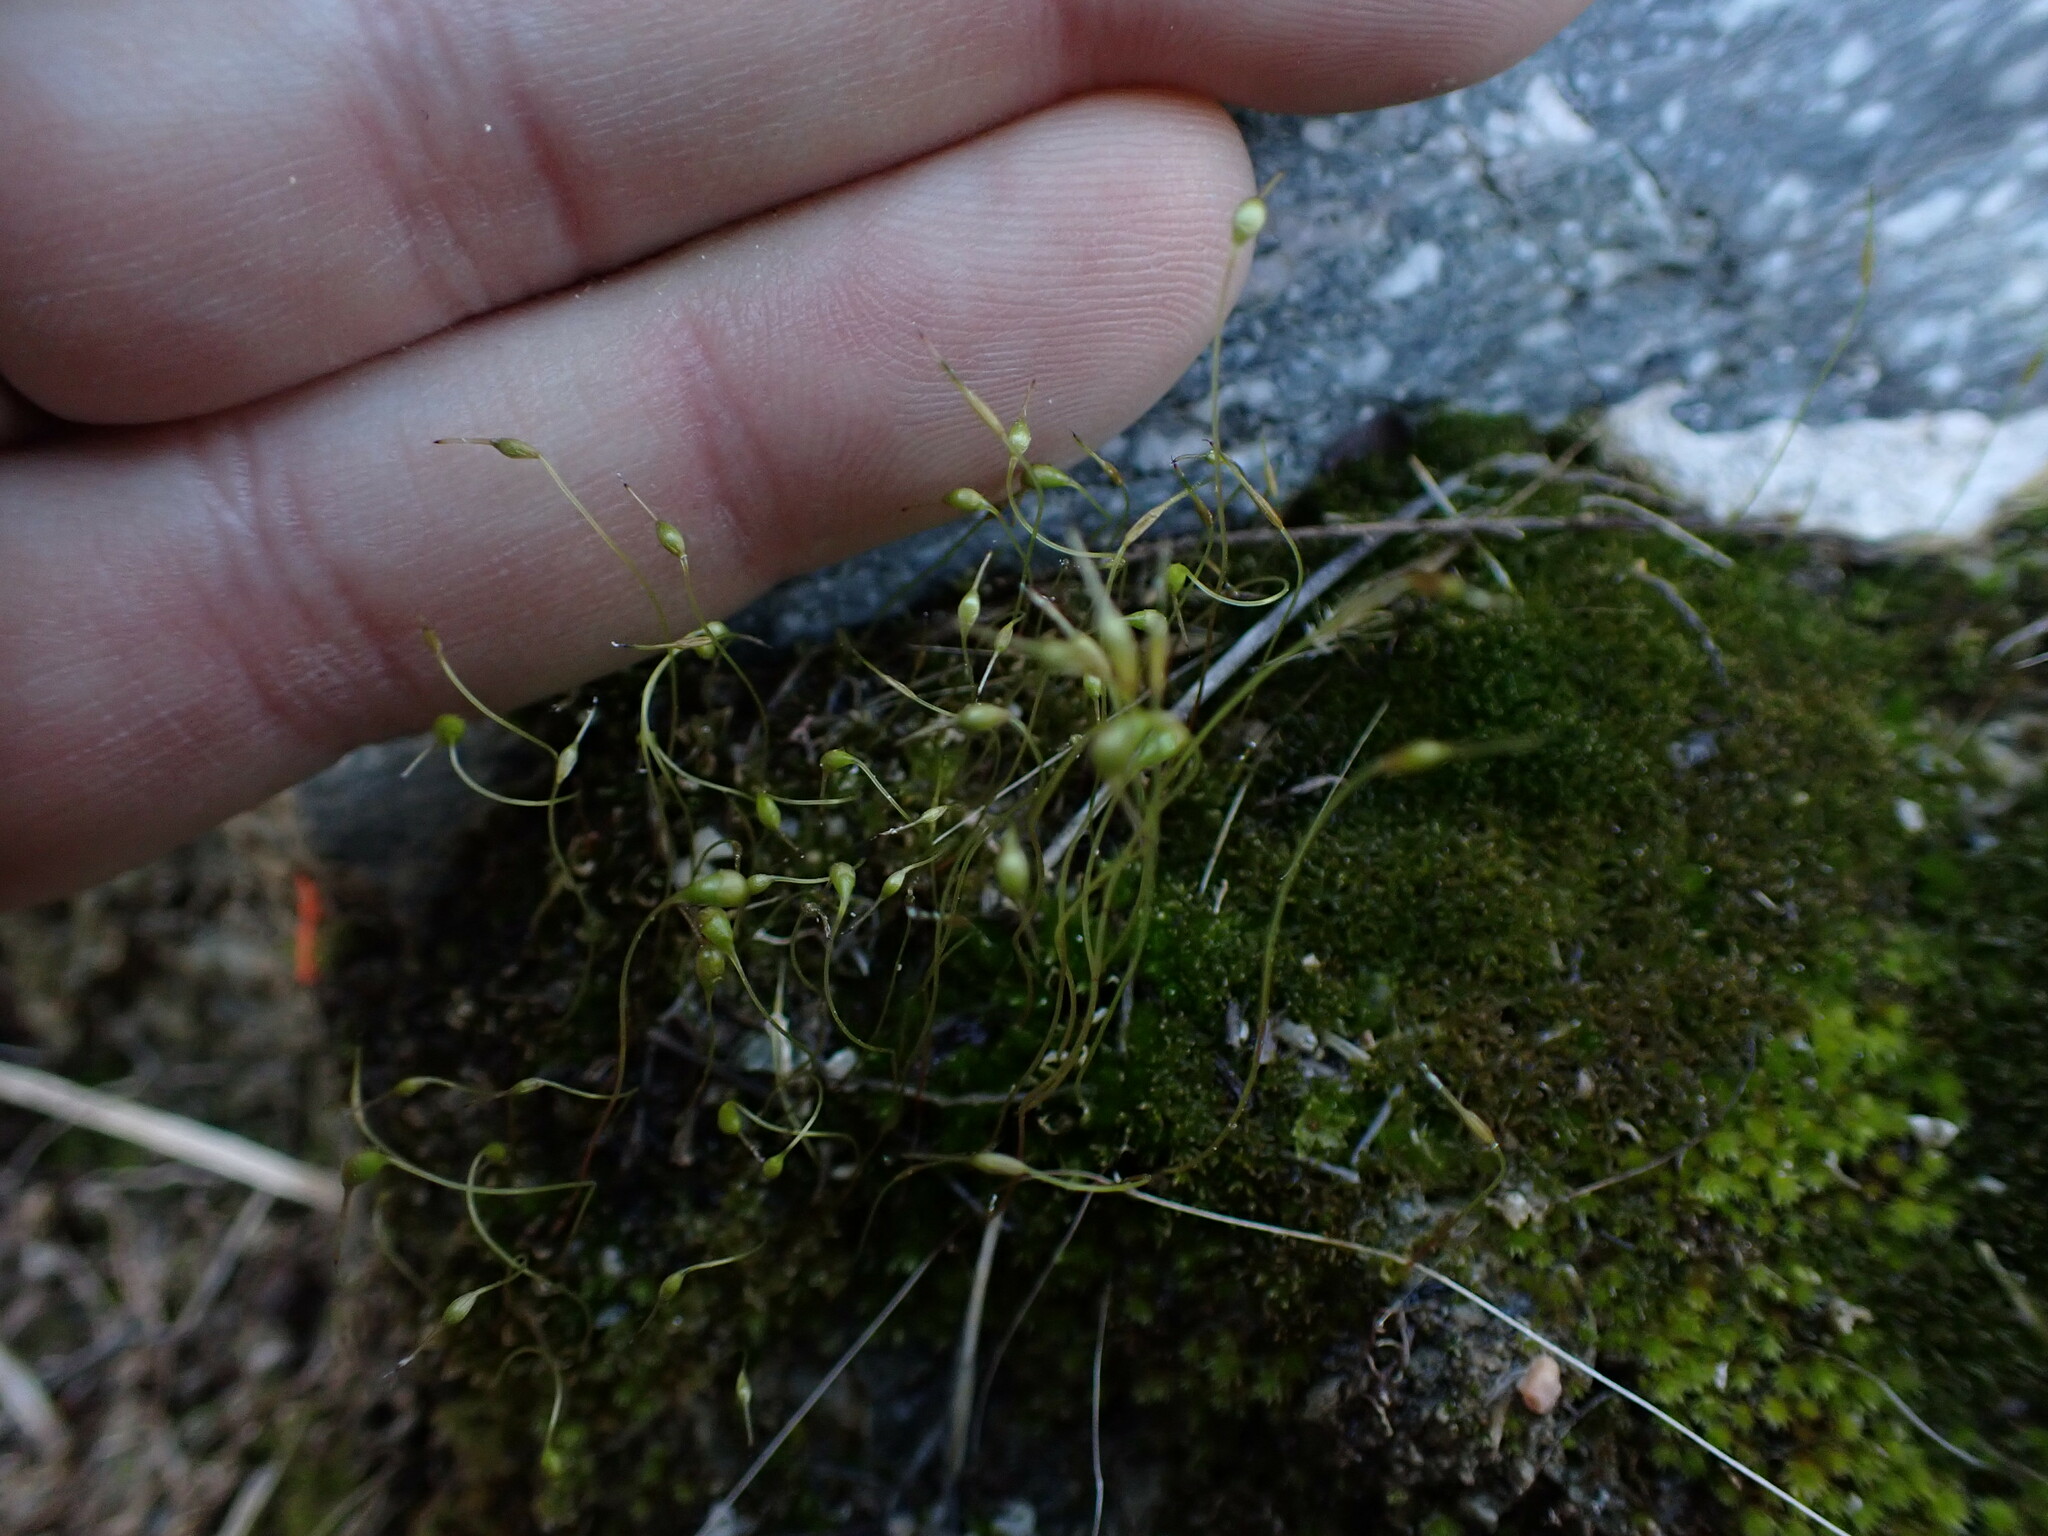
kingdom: Plantae
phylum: Bryophyta
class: Bryopsida
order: Funariales
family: Funariaceae
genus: Funaria
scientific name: Funaria hygrometrica
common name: Common cord moss
